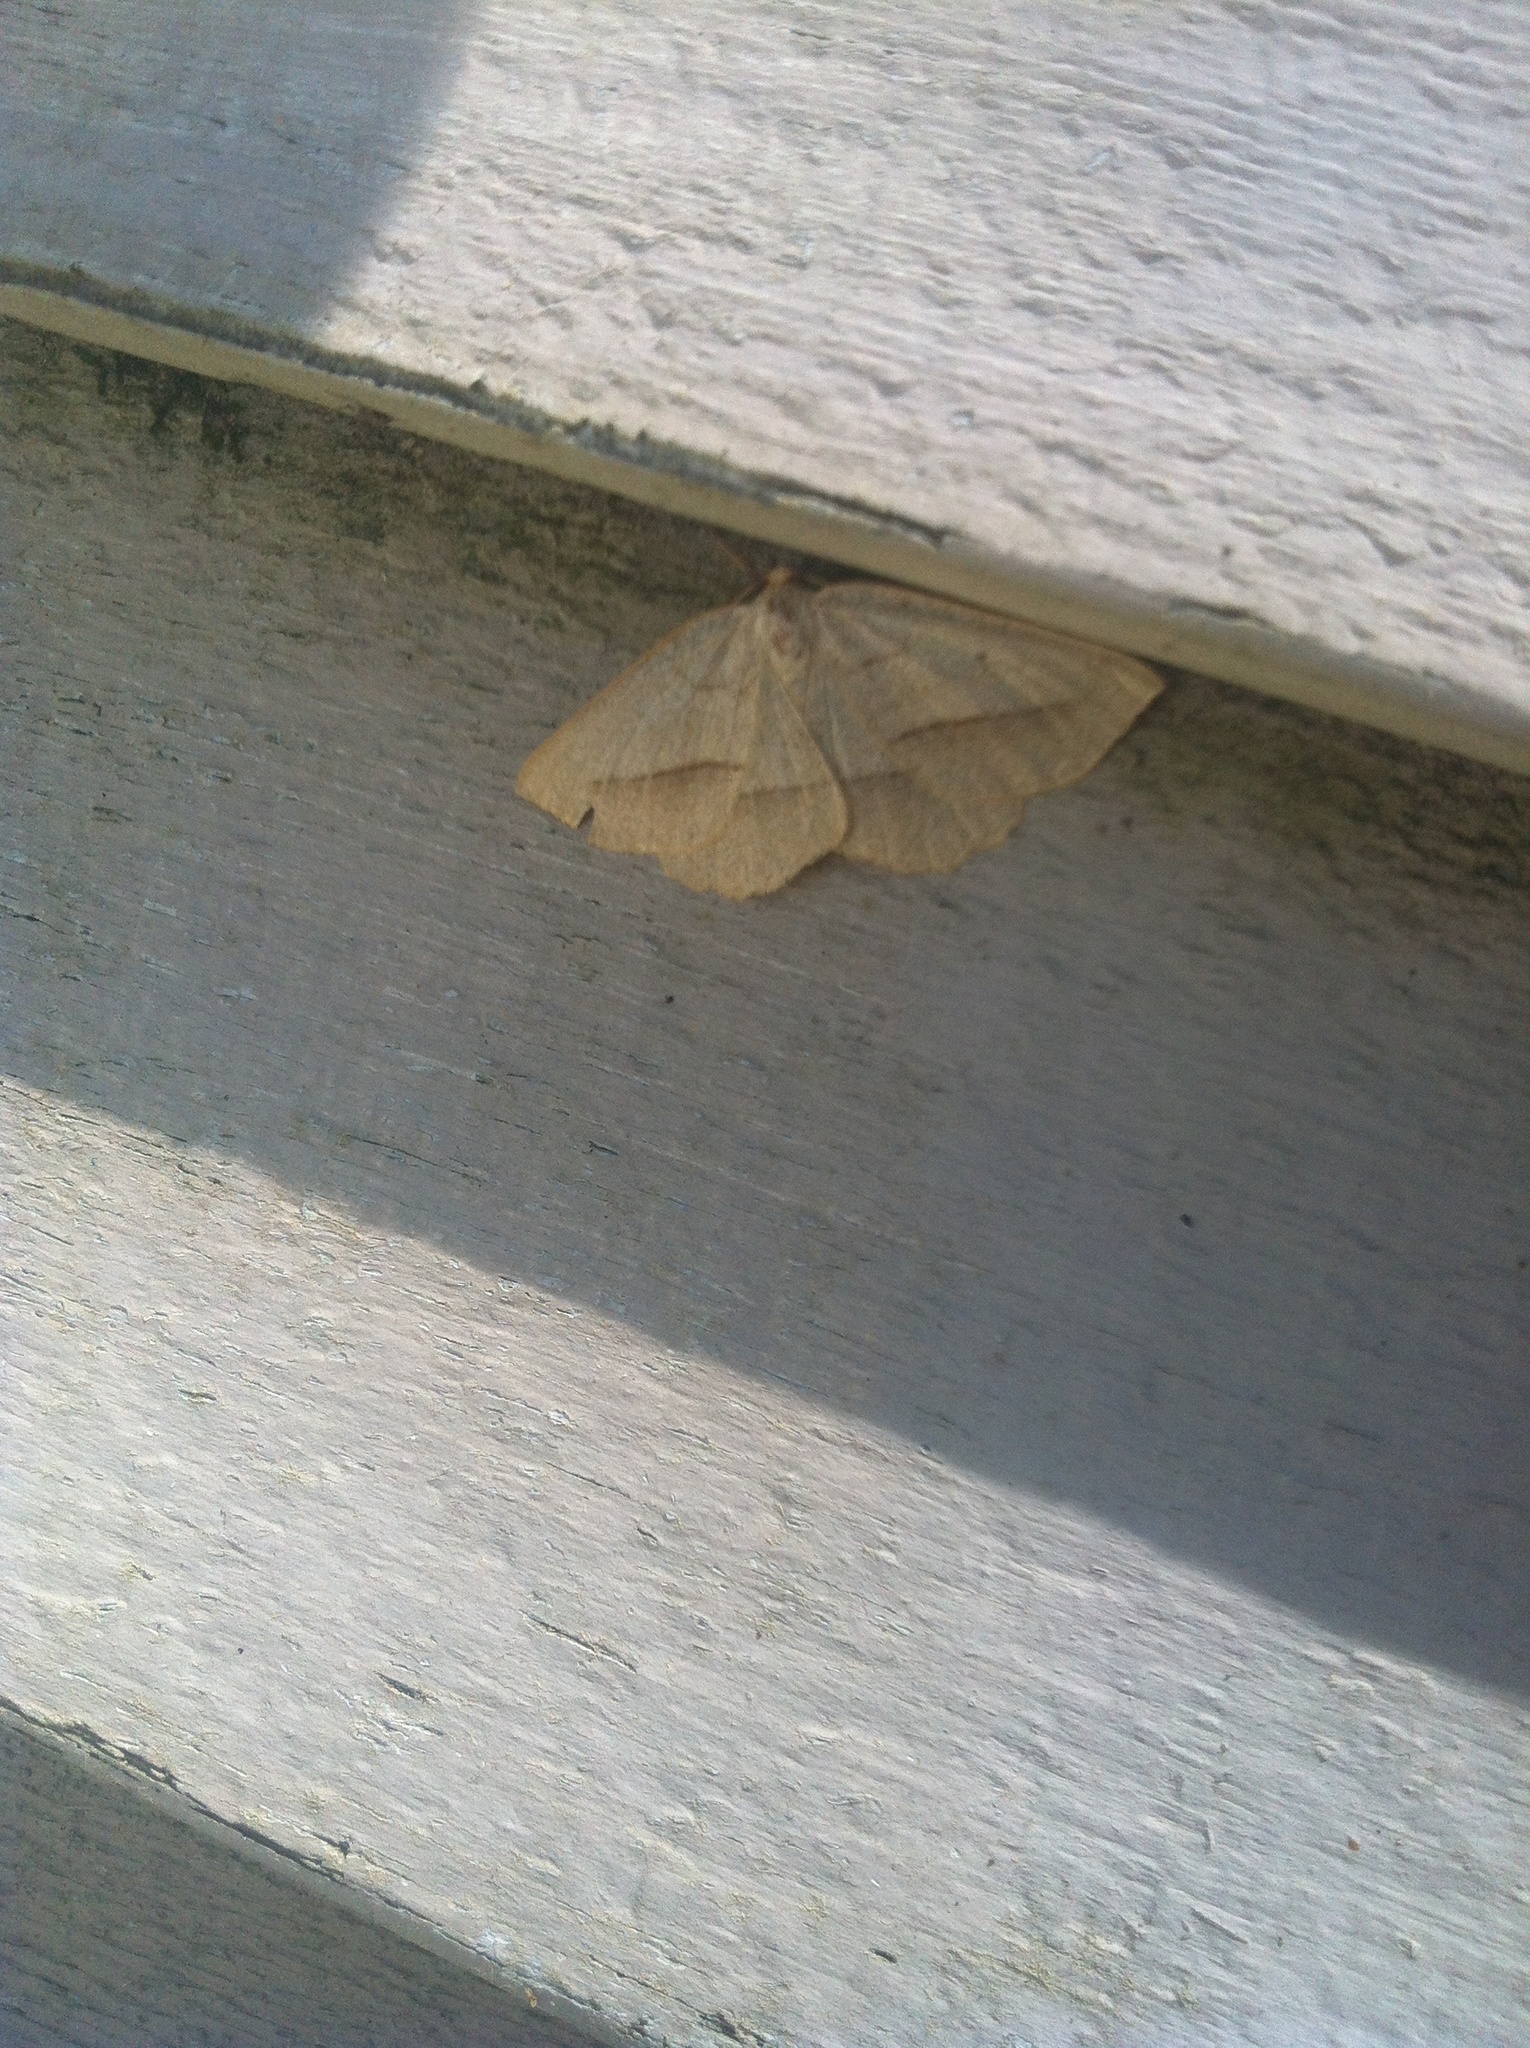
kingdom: Animalia
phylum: Arthropoda
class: Insecta
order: Lepidoptera
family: Geometridae
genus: Euchlaena
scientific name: Euchlaena irraria
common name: Least-marked euchlaena
